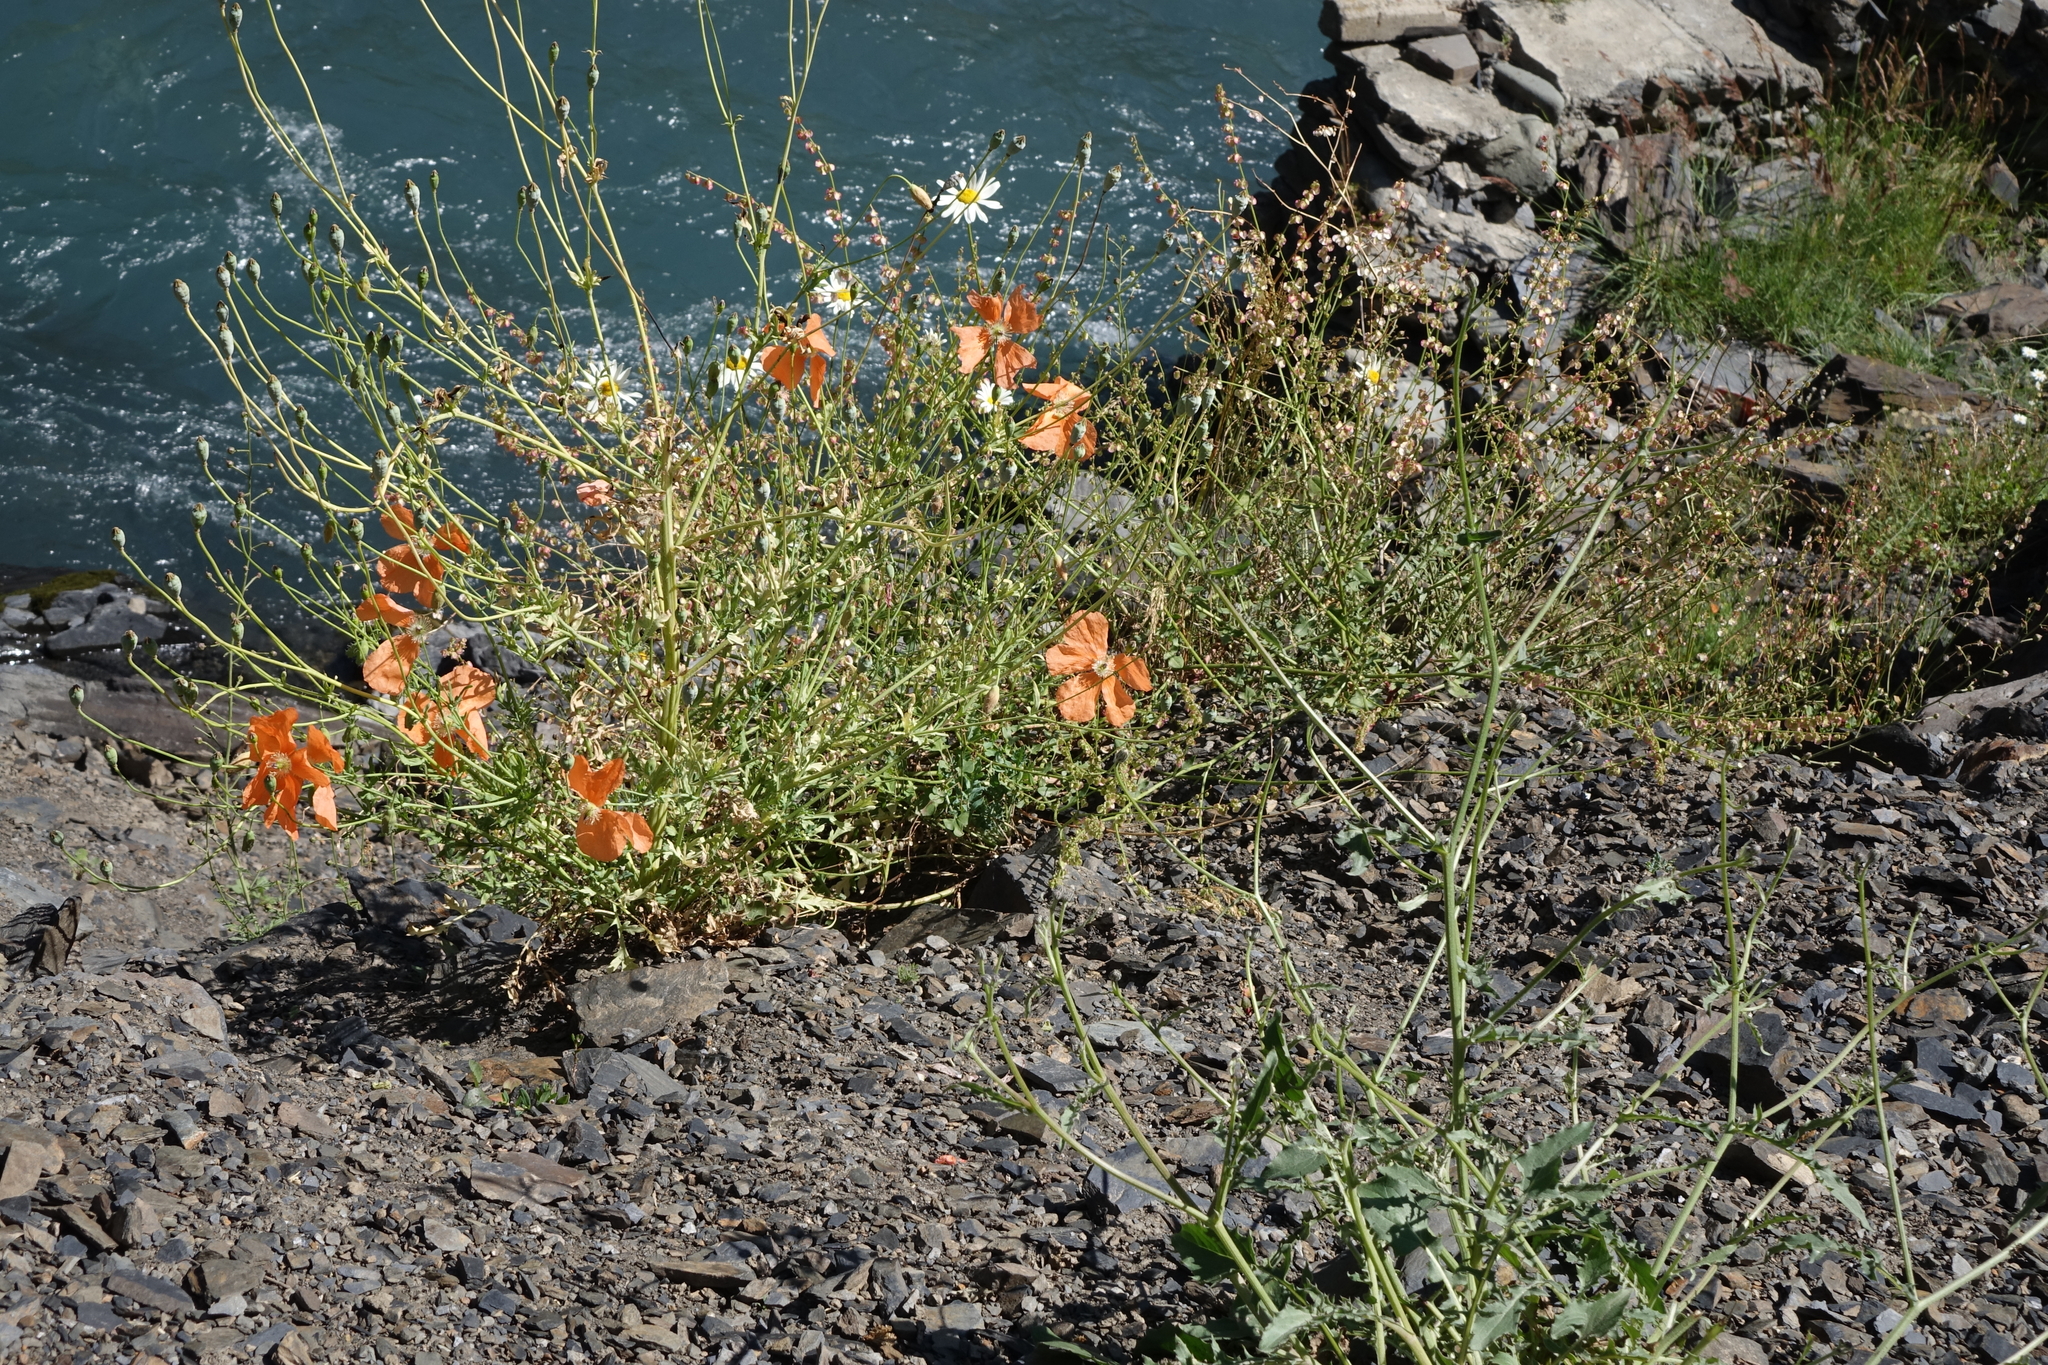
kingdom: Plantae
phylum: Tracheophyta
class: Magnoliopsida
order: Ranunculales
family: Papaveraceae
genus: Papaver
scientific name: Papaver armeniacum
